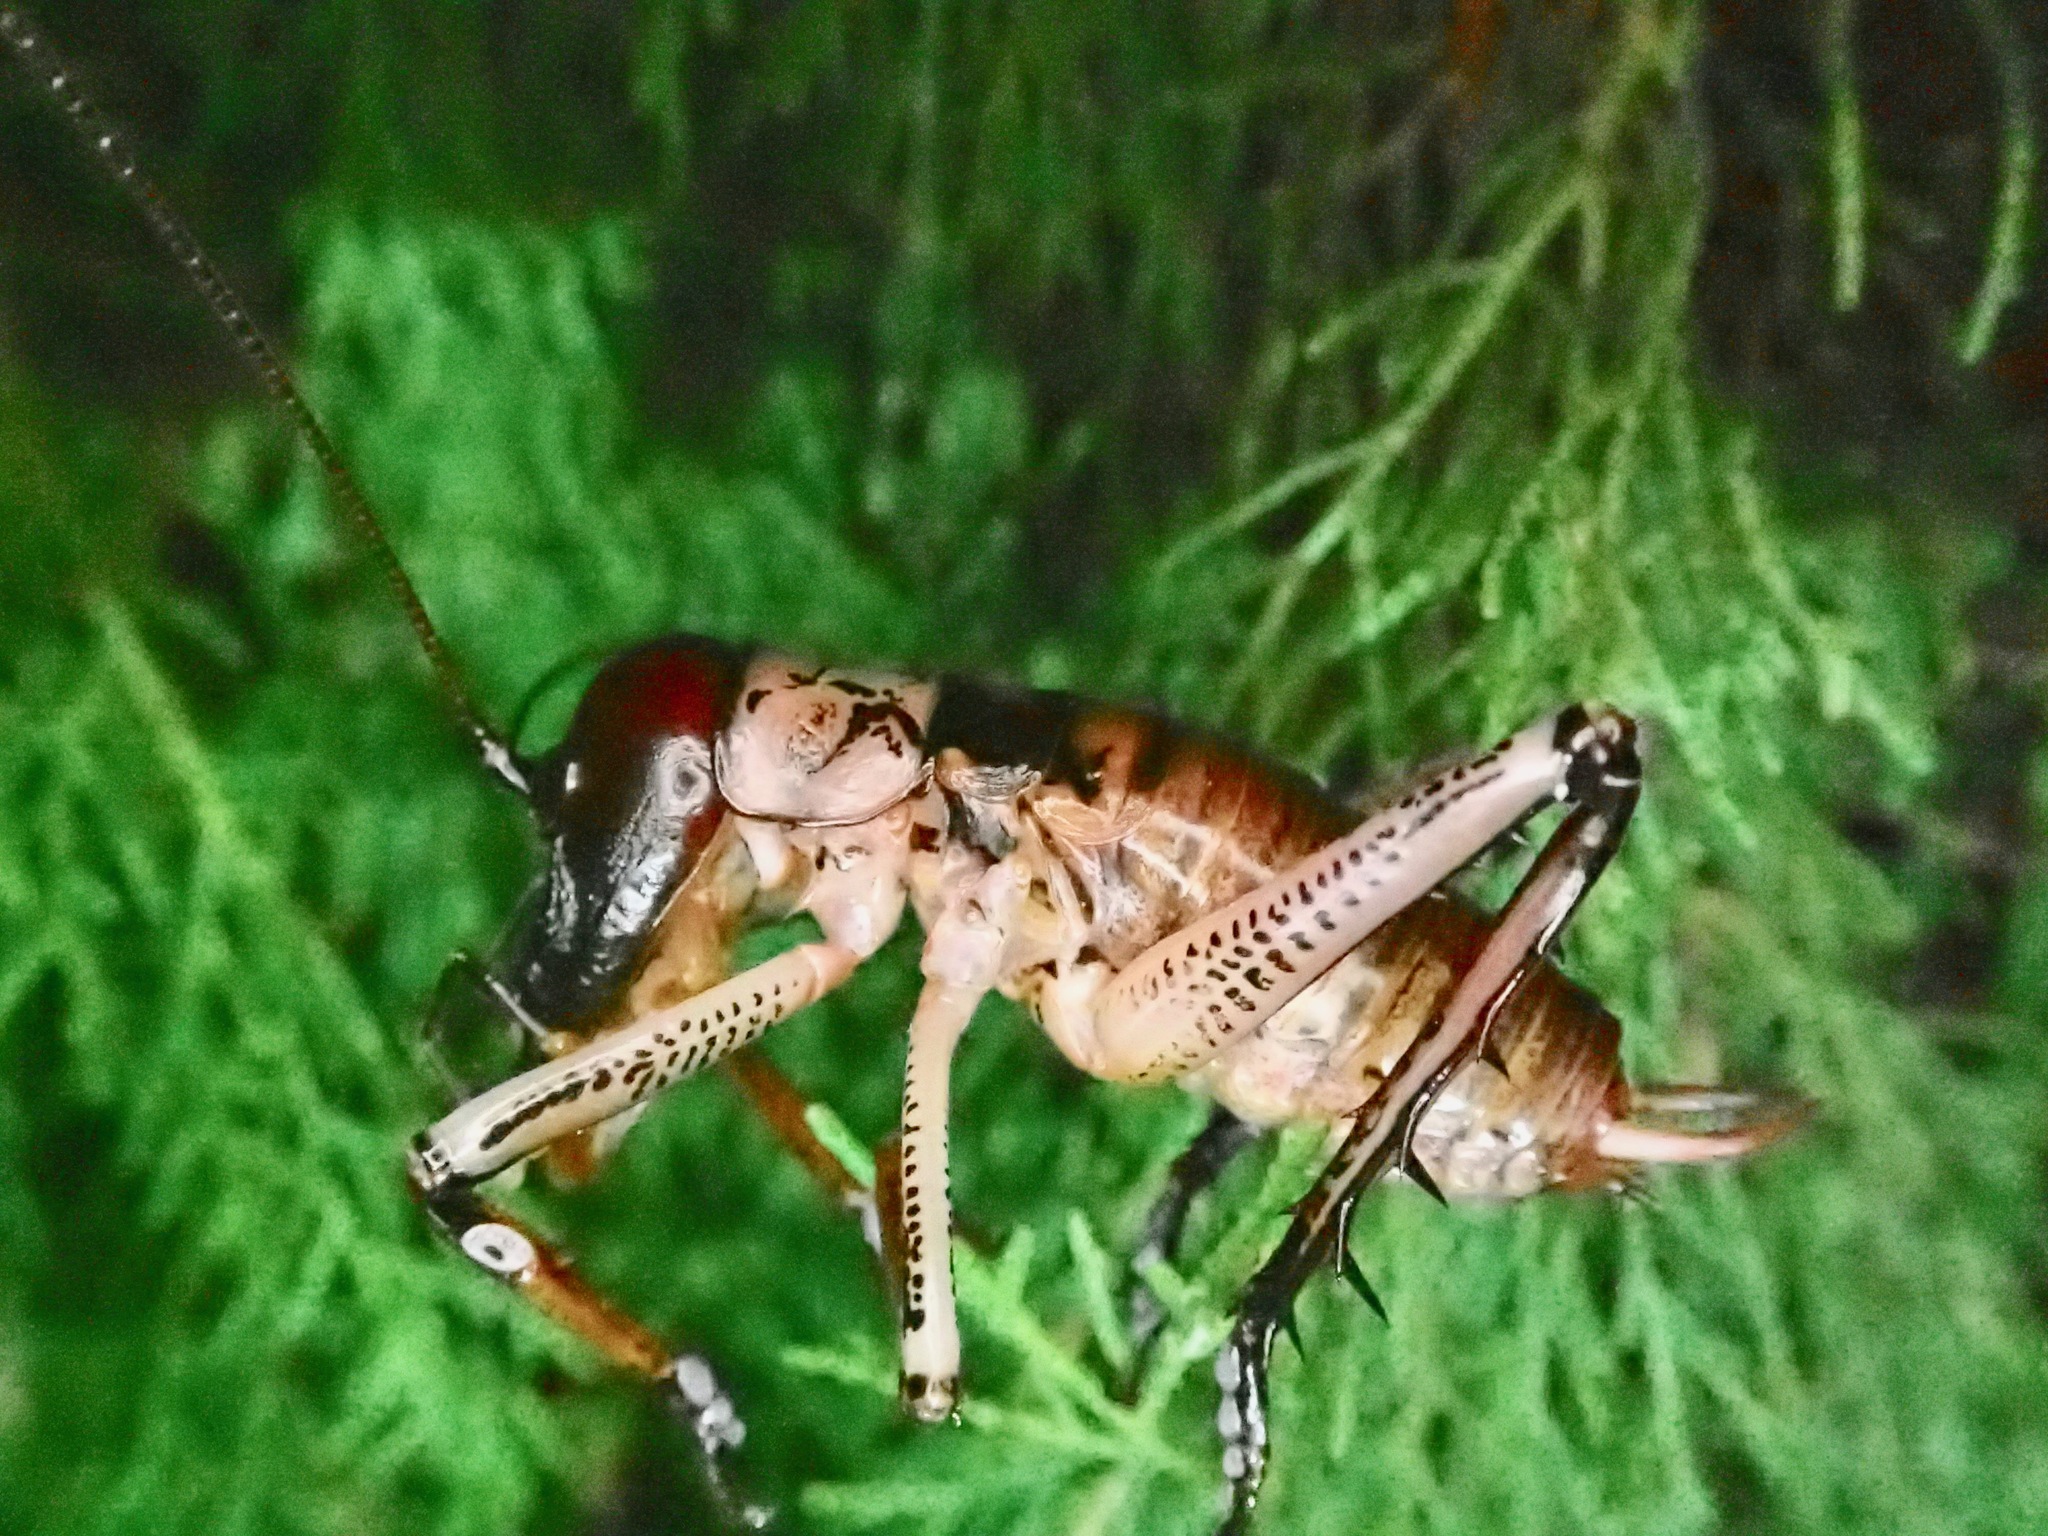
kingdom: Animalia
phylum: Arthropoda
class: Insecta
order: Orthoptera
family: Anostostomatidae
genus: Hemideina
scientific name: Hemideina thoracica
